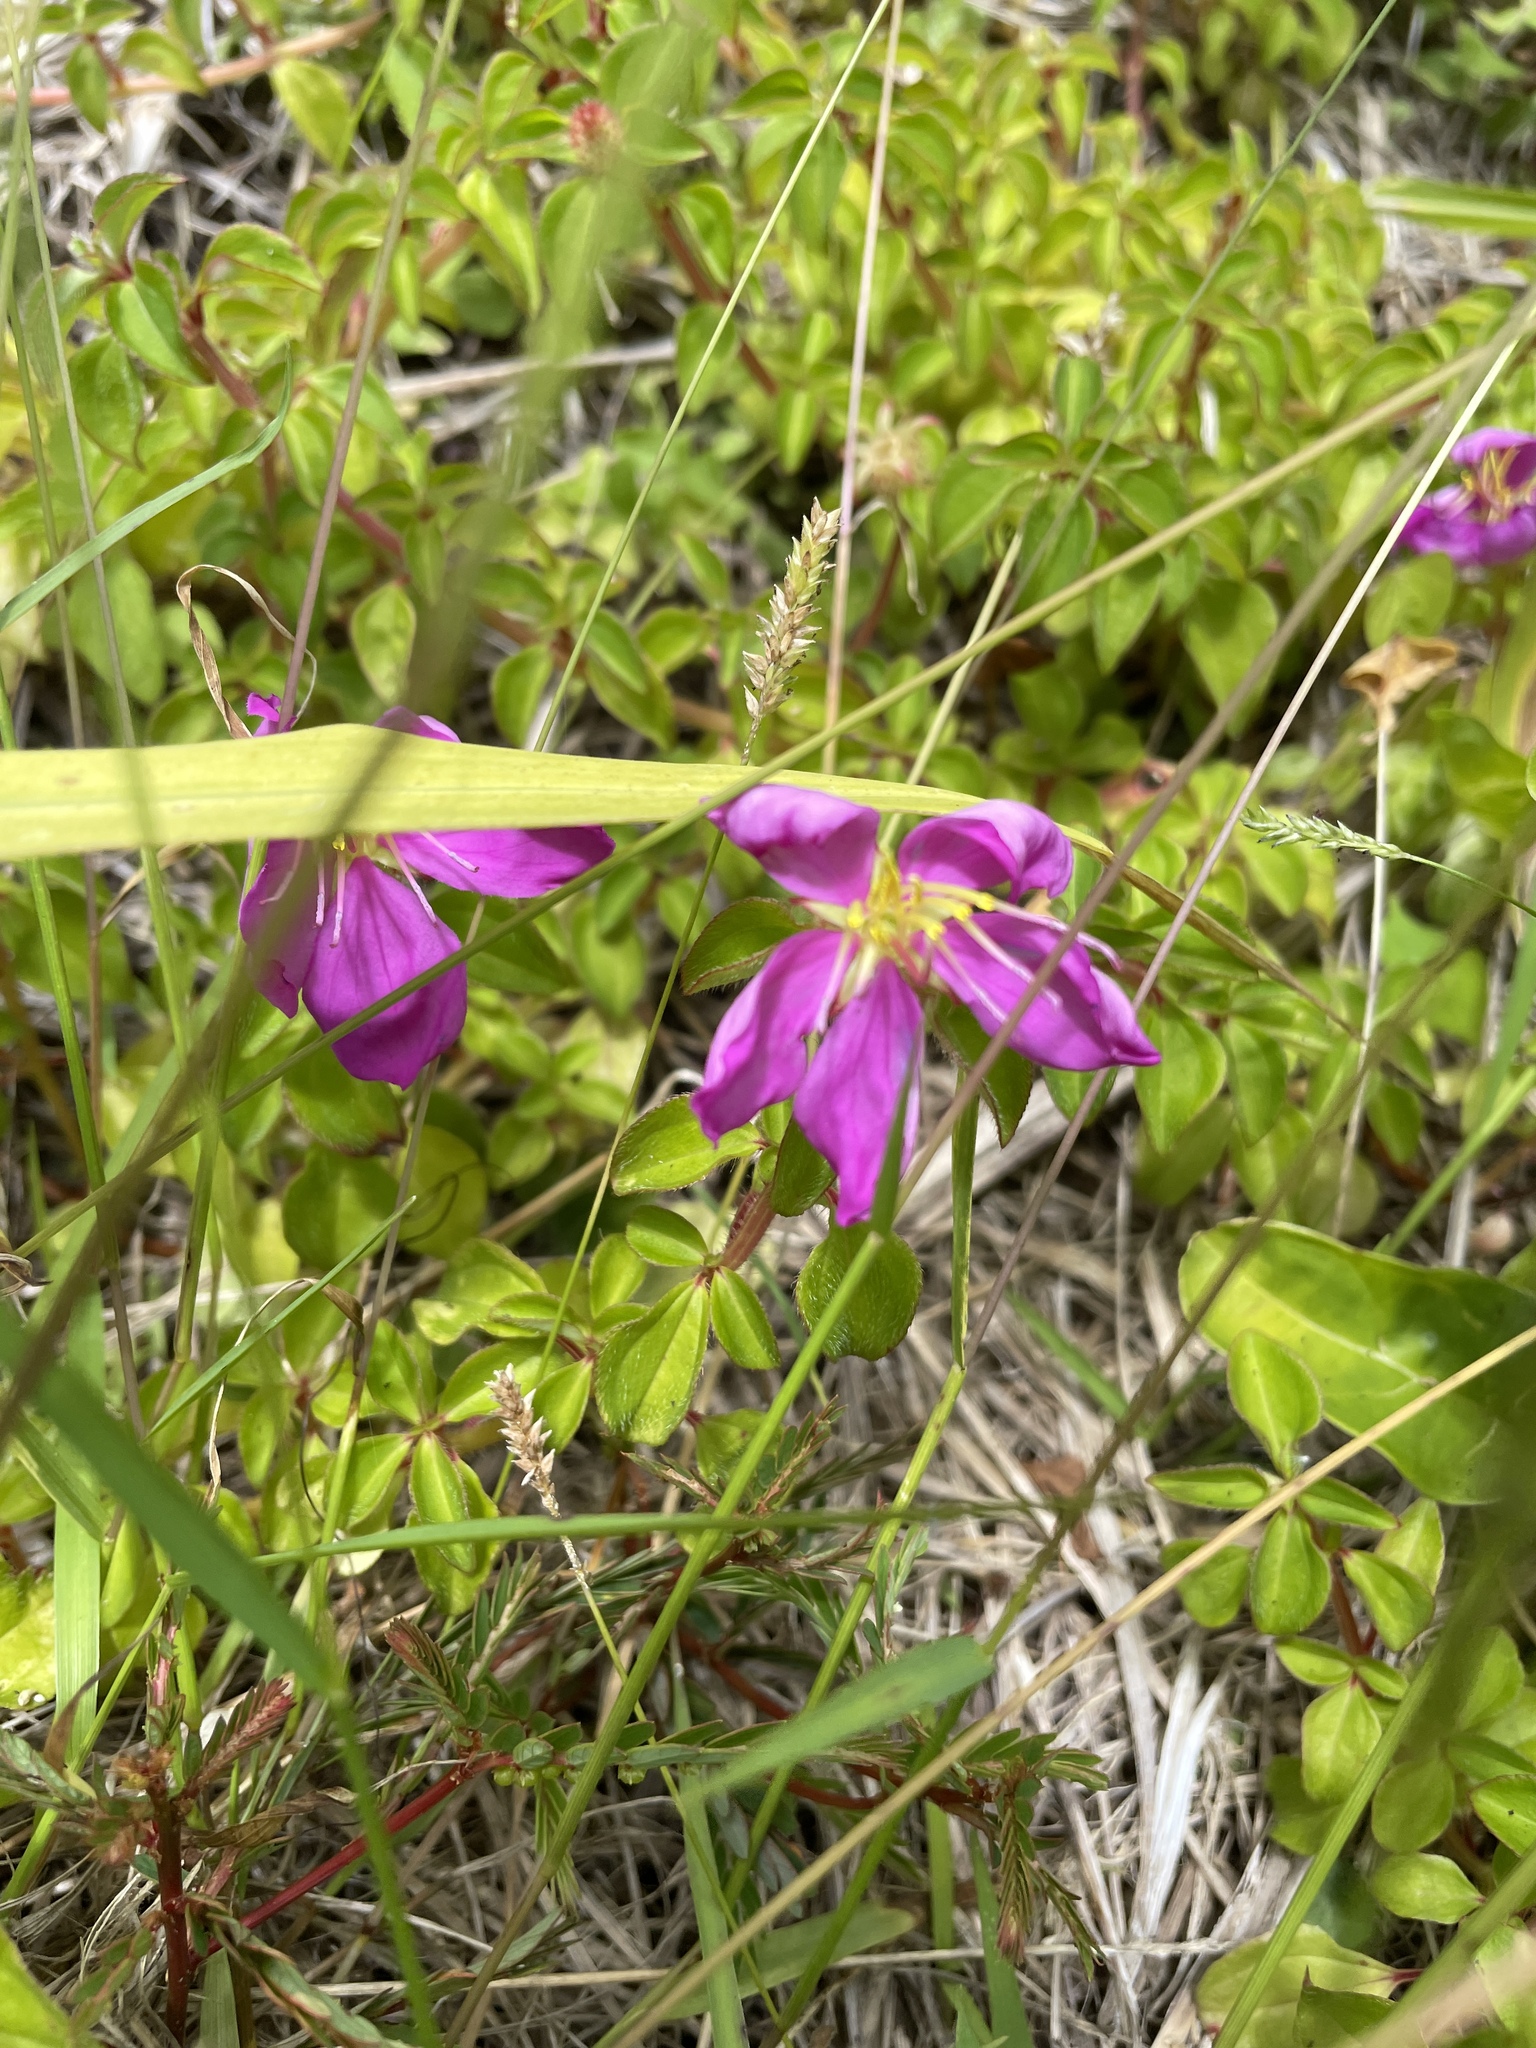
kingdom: Plantae
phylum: Tracheophyta
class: Magnoliopsida
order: Myrtales
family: Melastomataceae
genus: Heterotis
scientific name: Heterotis rotundifolia
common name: Pinklady
